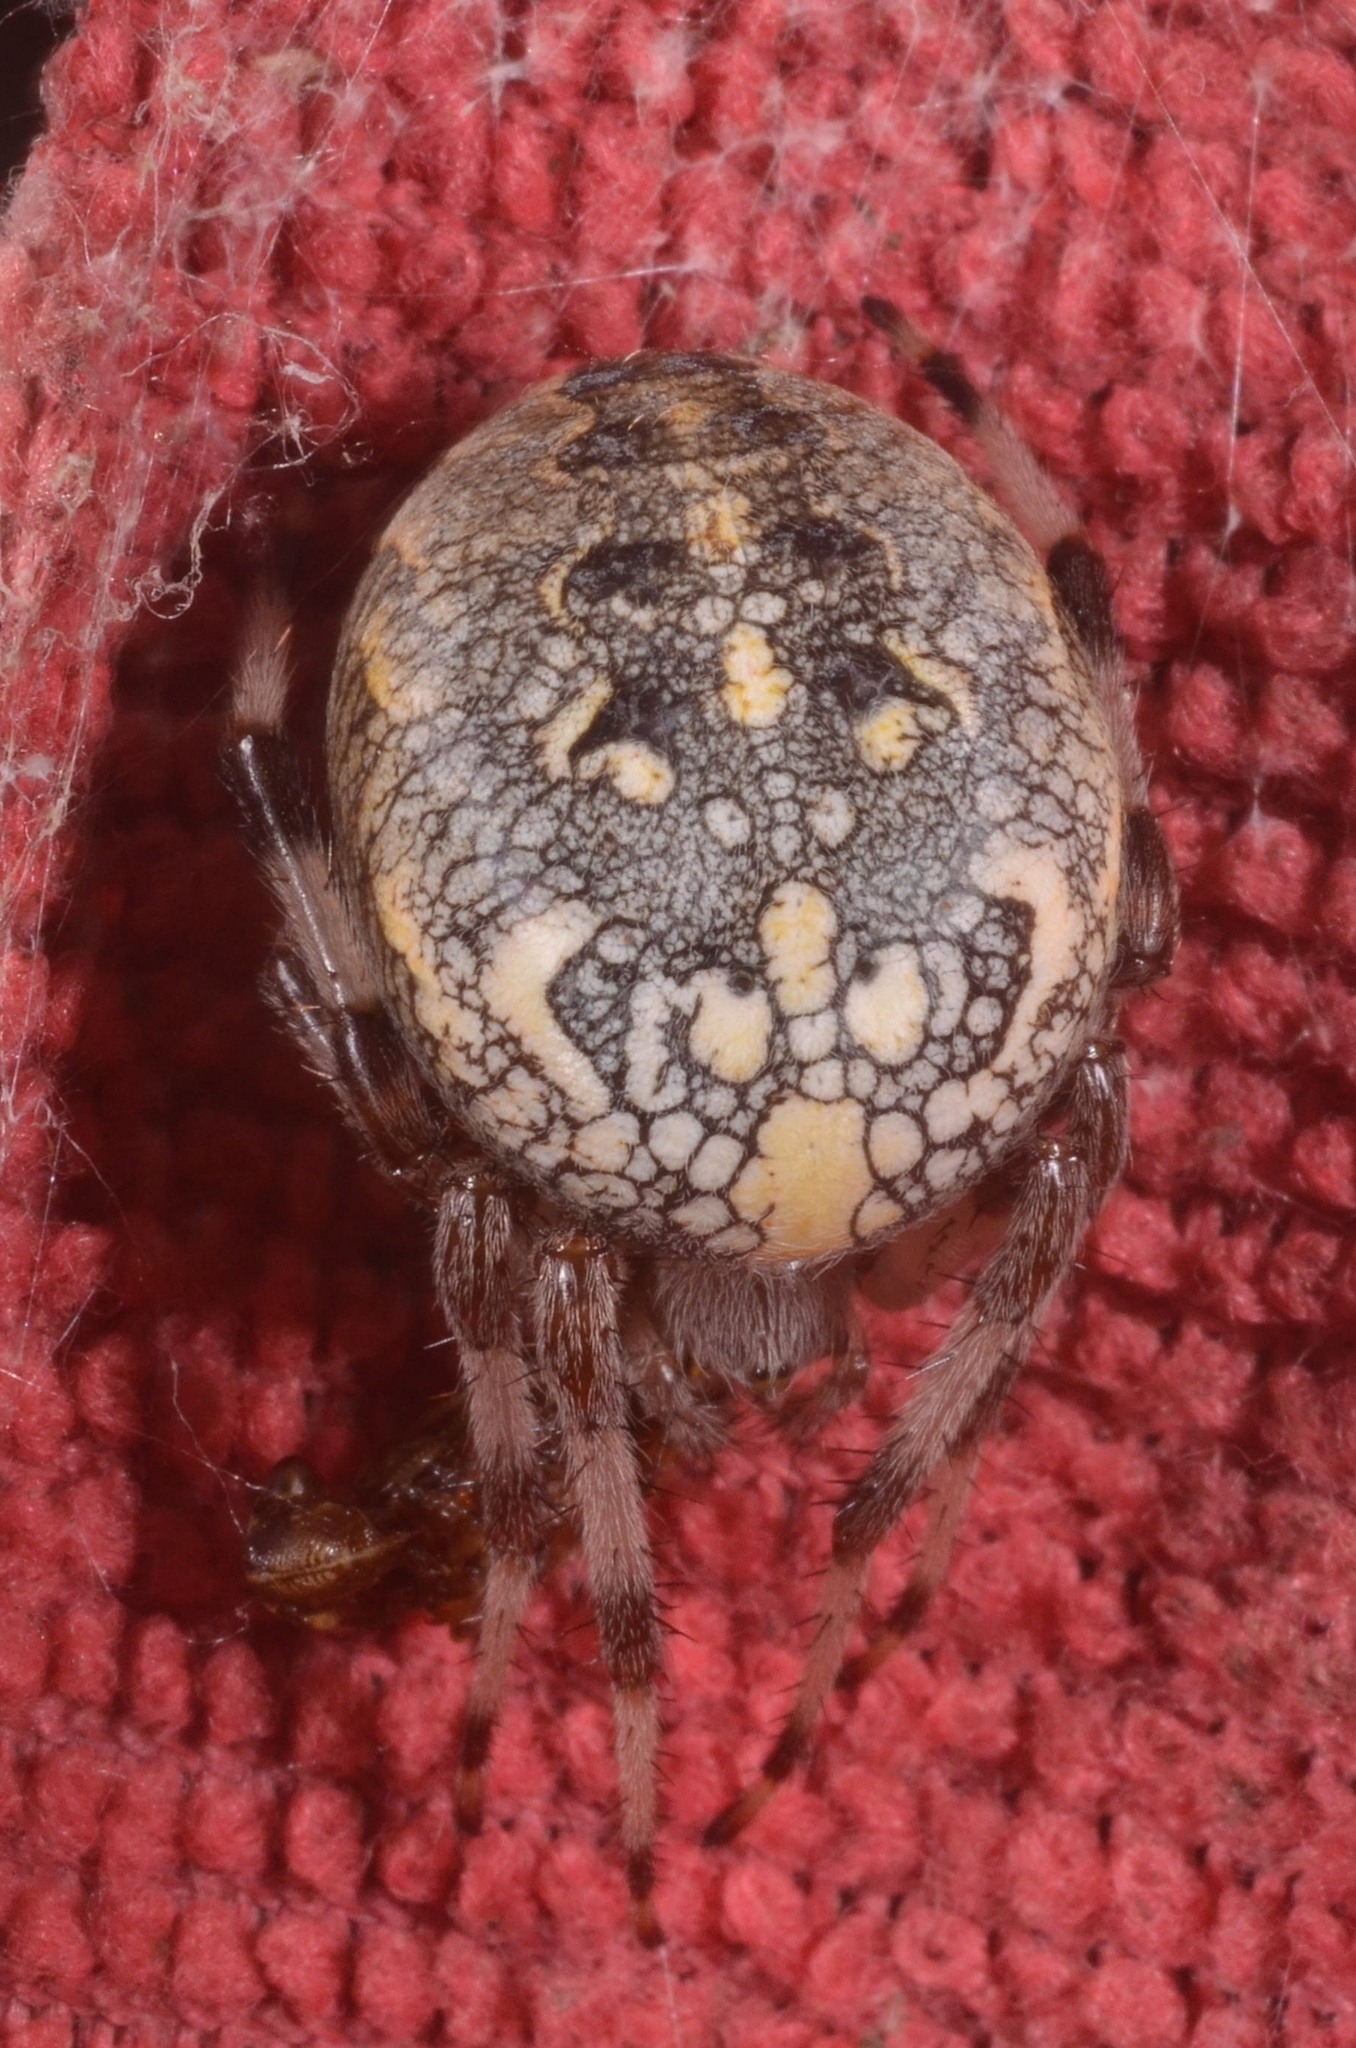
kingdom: Animalia
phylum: Arthropoda
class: Arachnida
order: Araneae
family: Araneidae
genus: Araneus
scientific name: Araneus marmoreus
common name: Marbled orbweaver
